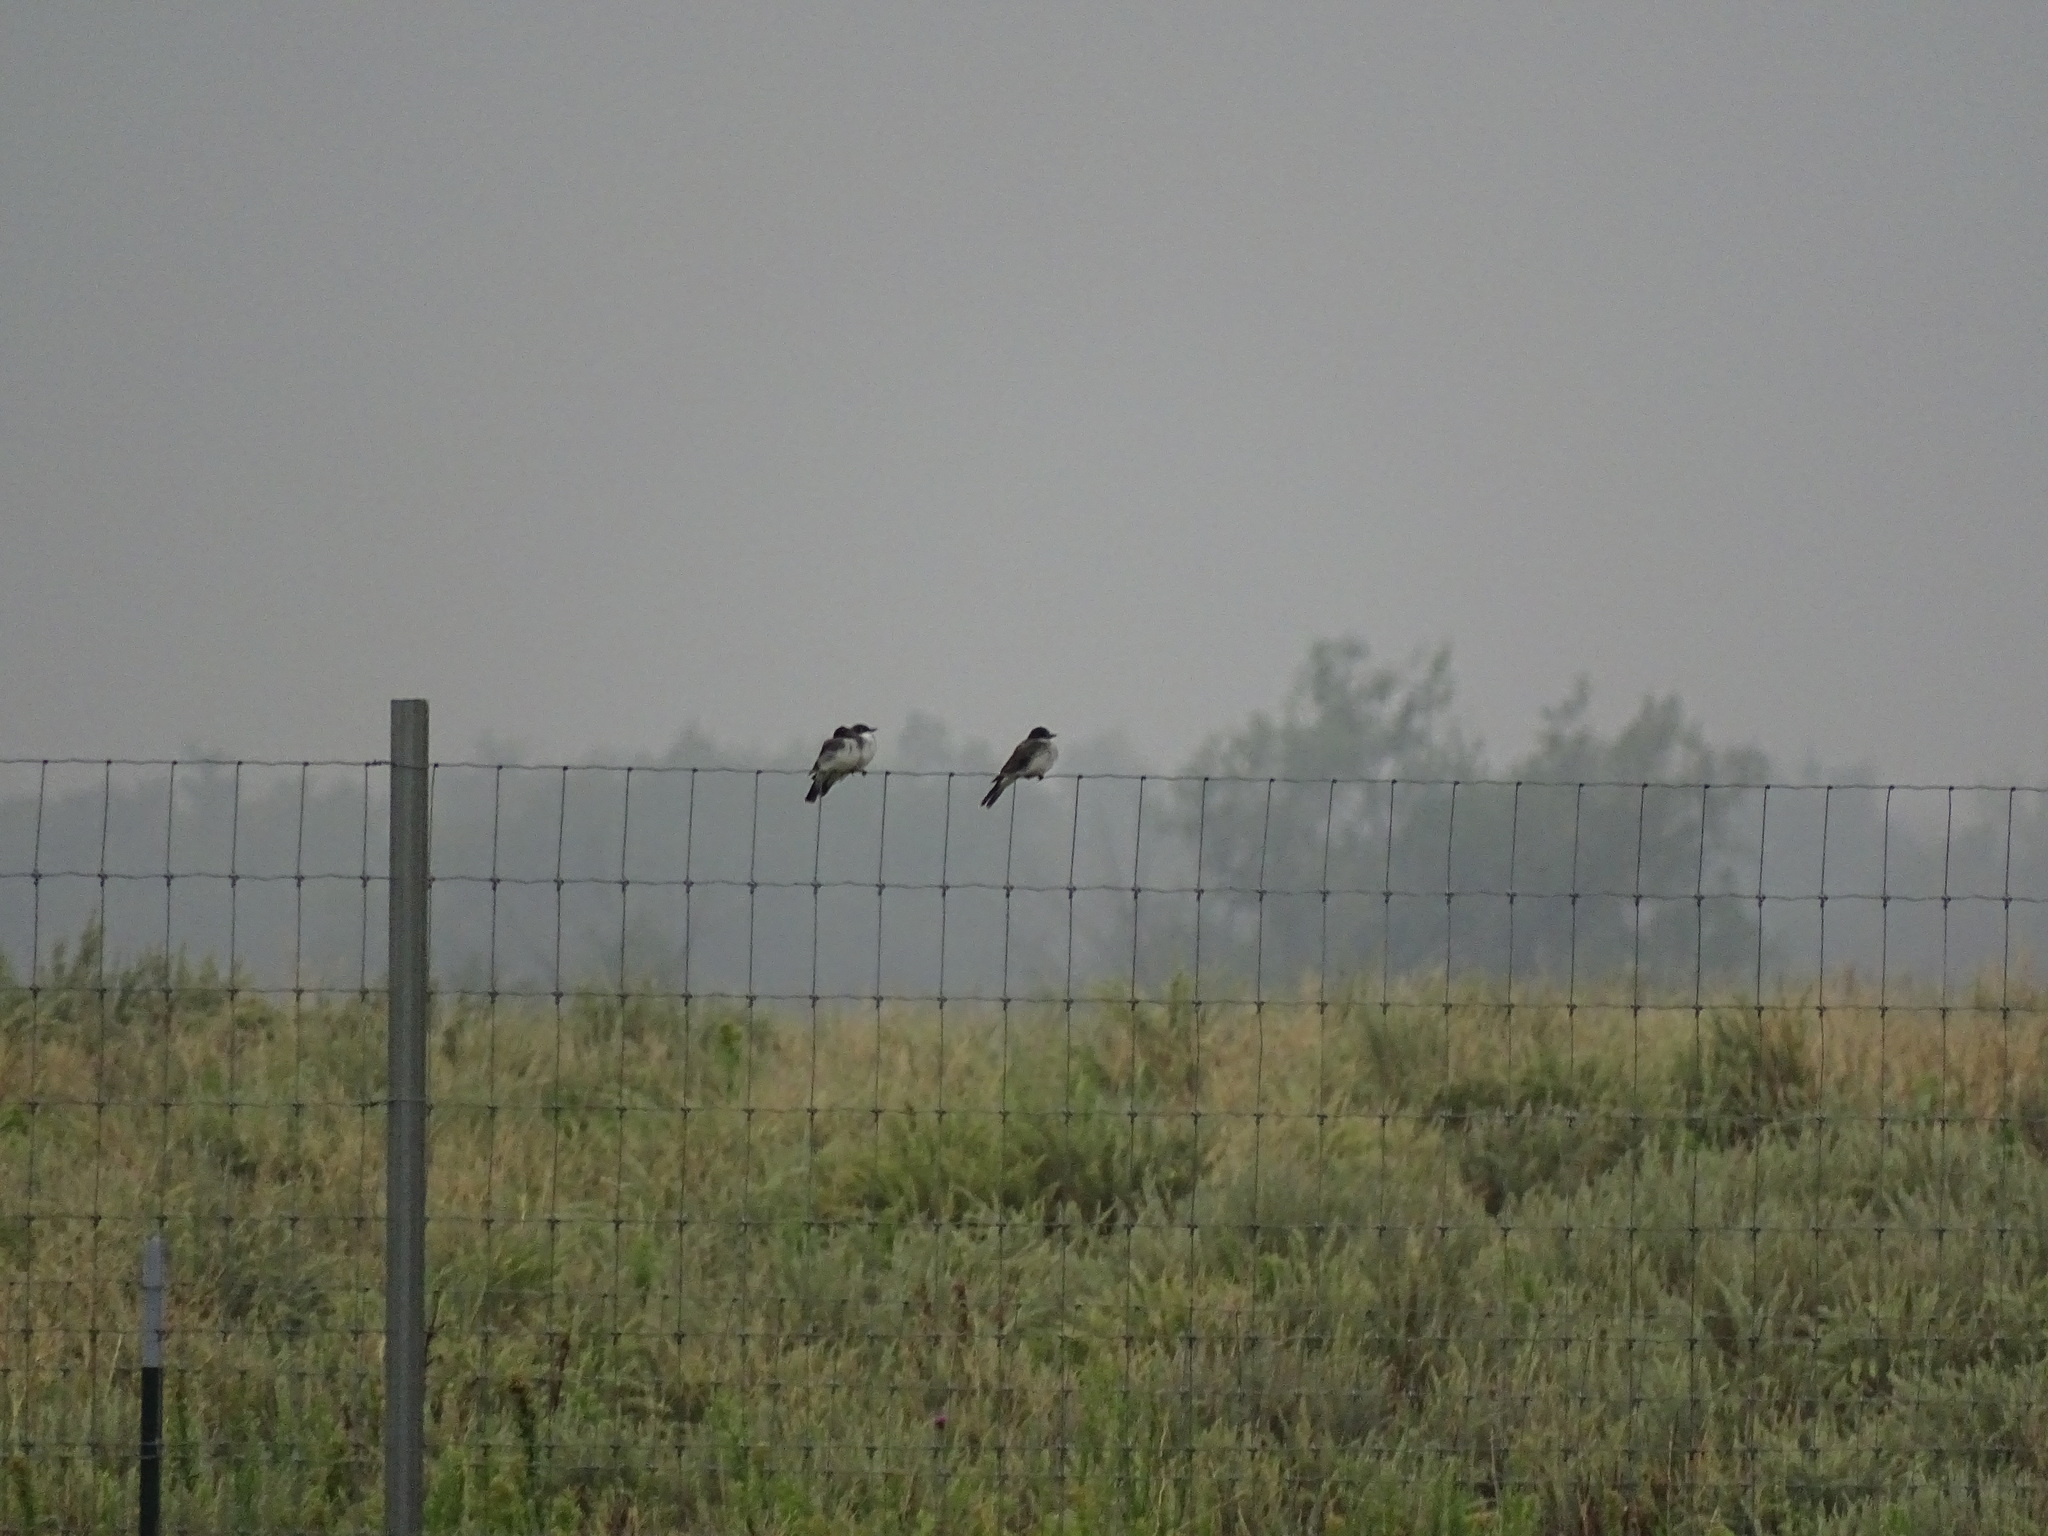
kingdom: Animalia
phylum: Chordata
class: Aves
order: Passeriformes
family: Tyrannidae
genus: Tyrannus
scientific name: Tyrannus tyrannus
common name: Eastern kingbird
